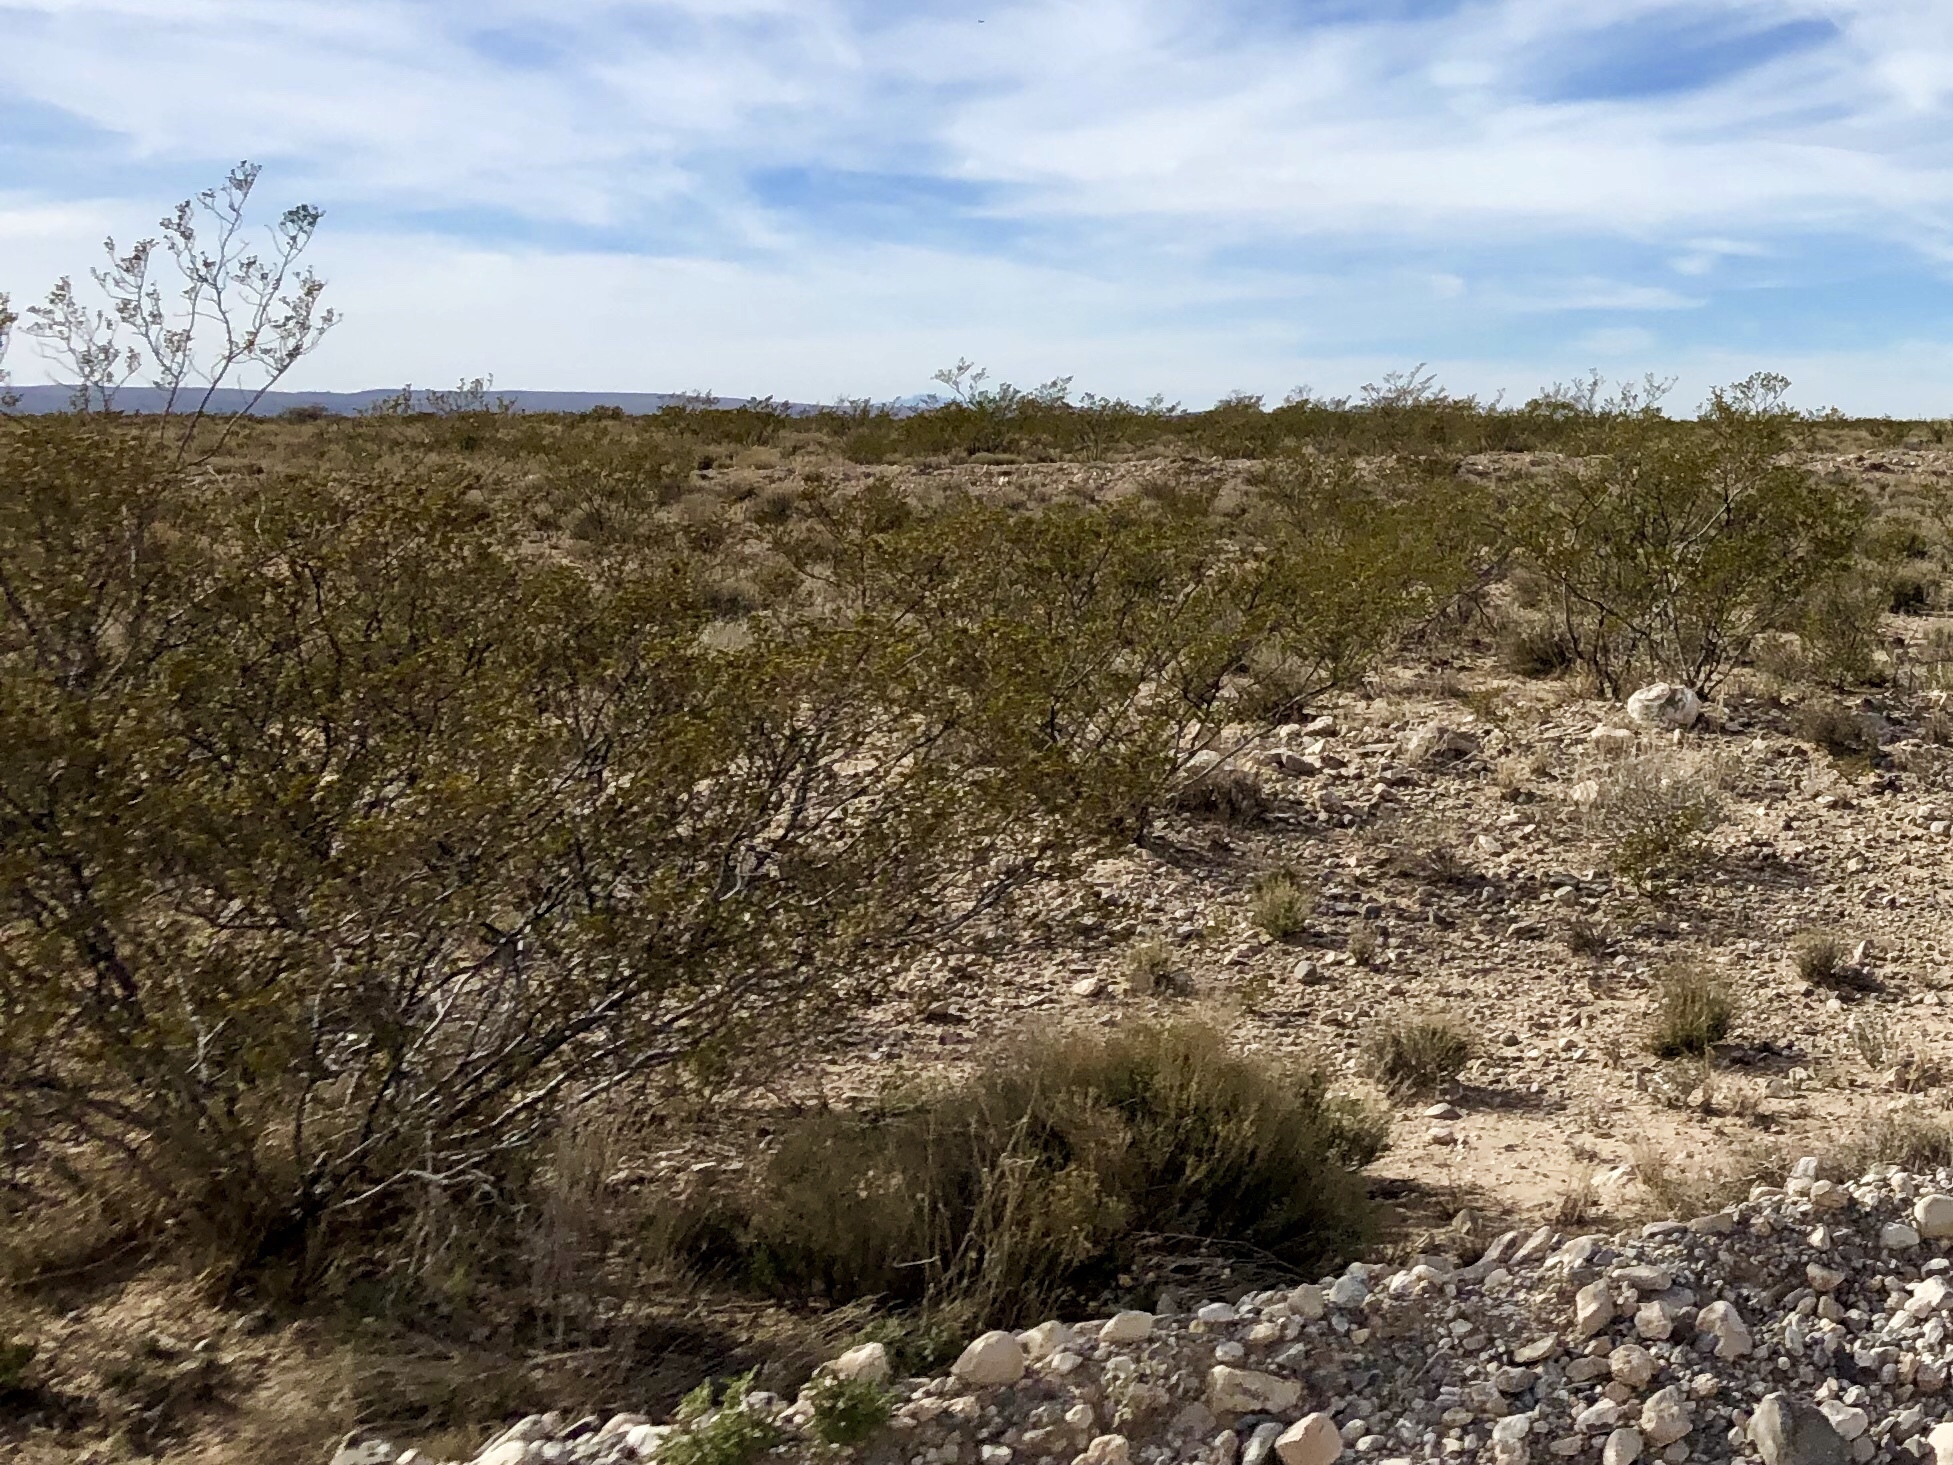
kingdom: Plantae
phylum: Tracheophyta
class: Magnoliopsida
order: Zygophyllales
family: Zygophyllaceae
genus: Larrea
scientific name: Larrea tridentata
